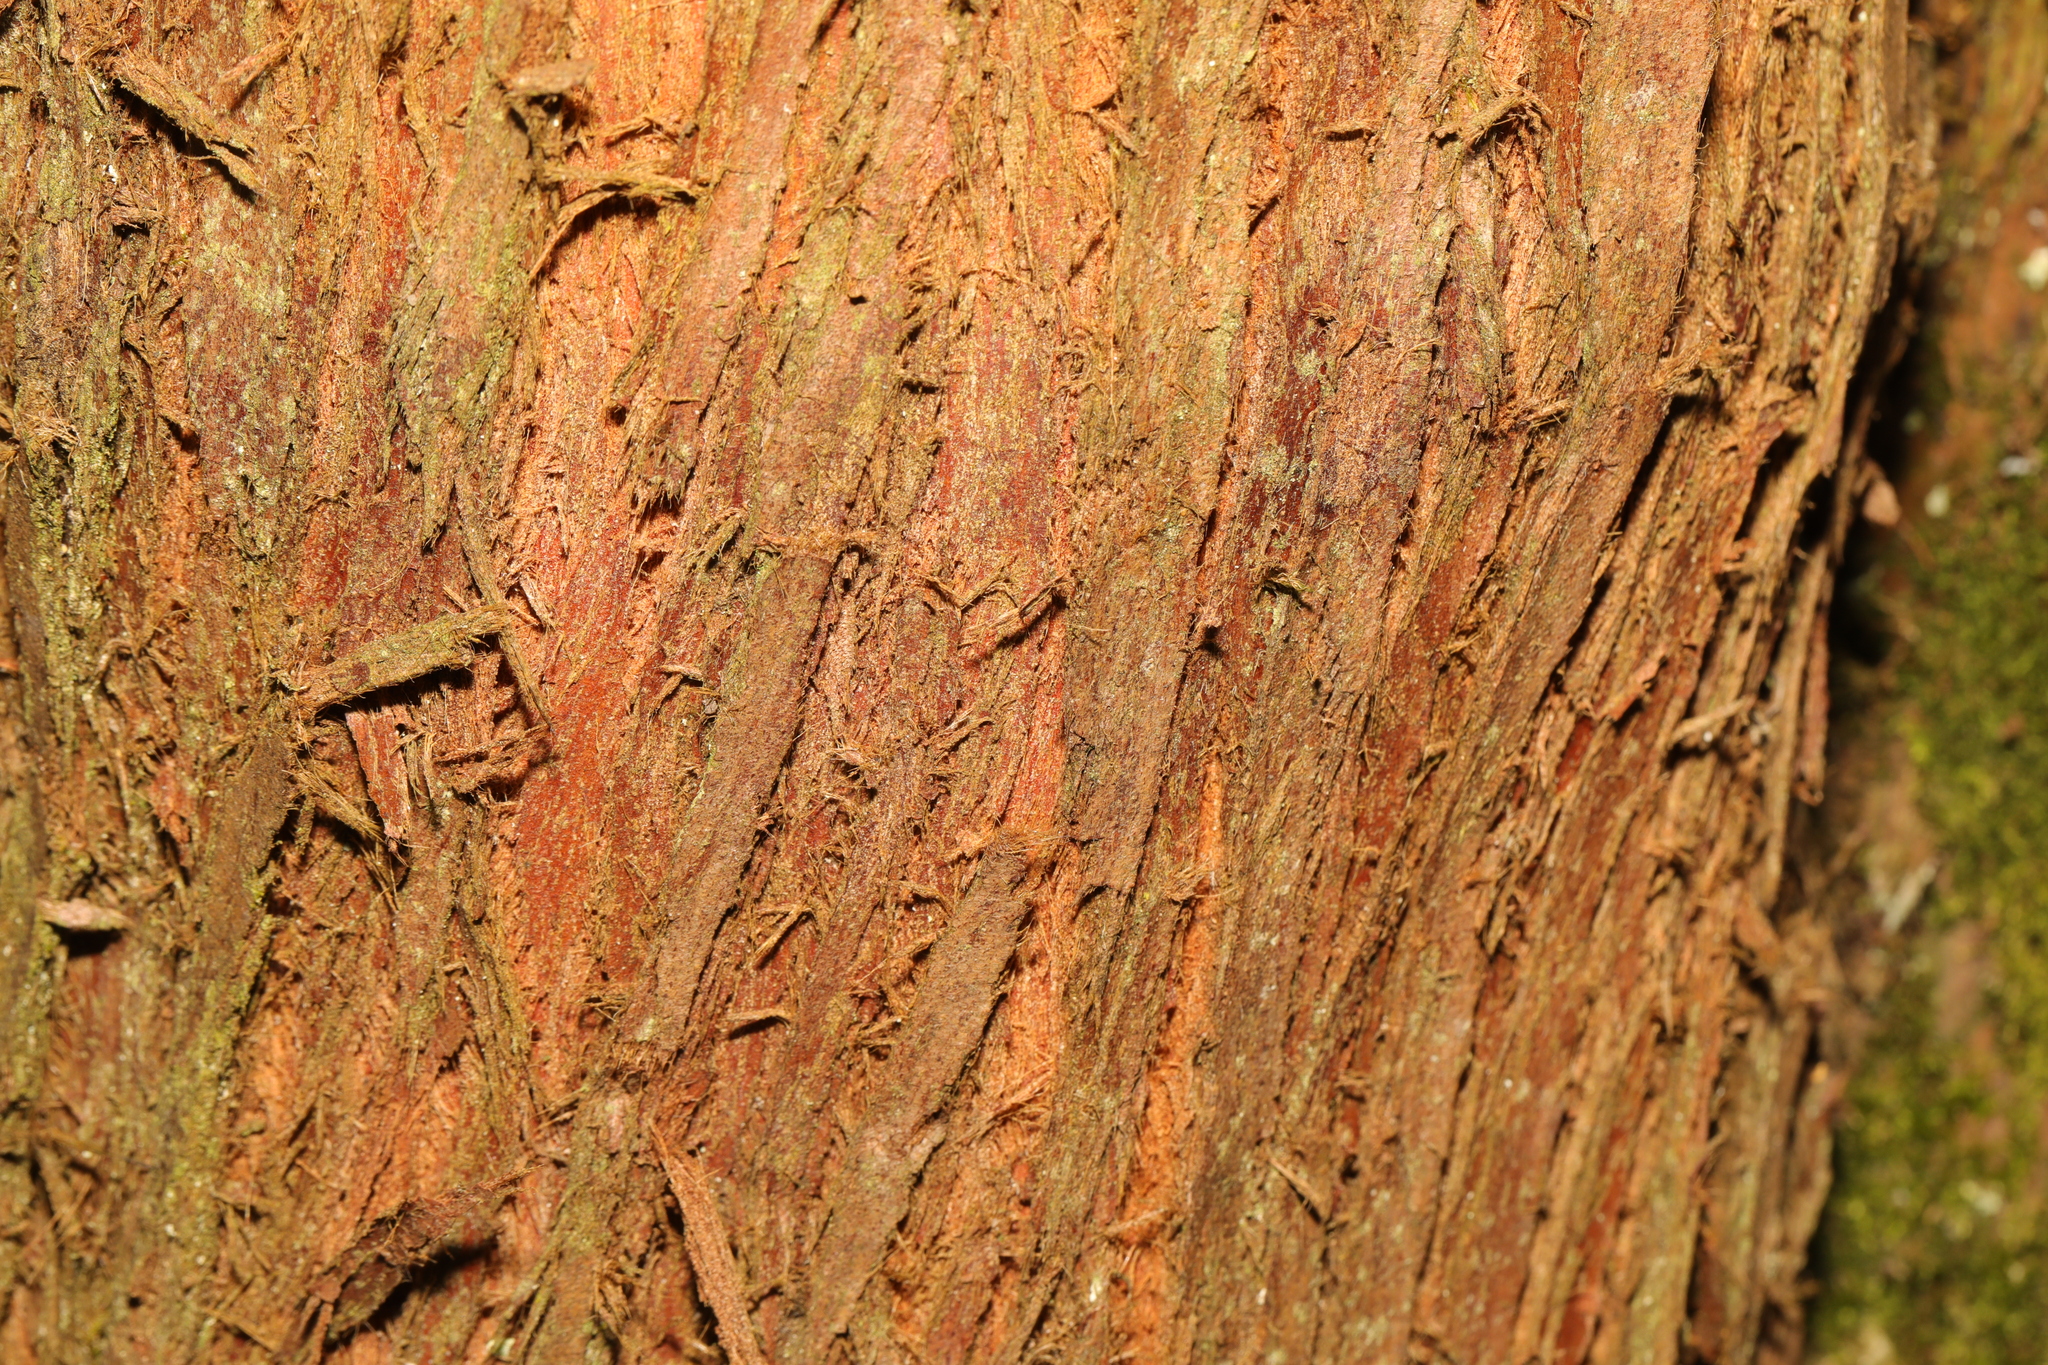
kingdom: Plantae
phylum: Tracheophyta
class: Pinopsida
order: Pinales
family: Cupressaceae
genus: Metasequoia
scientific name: Metasequoia glyptostroboides
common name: Dawn redwood
